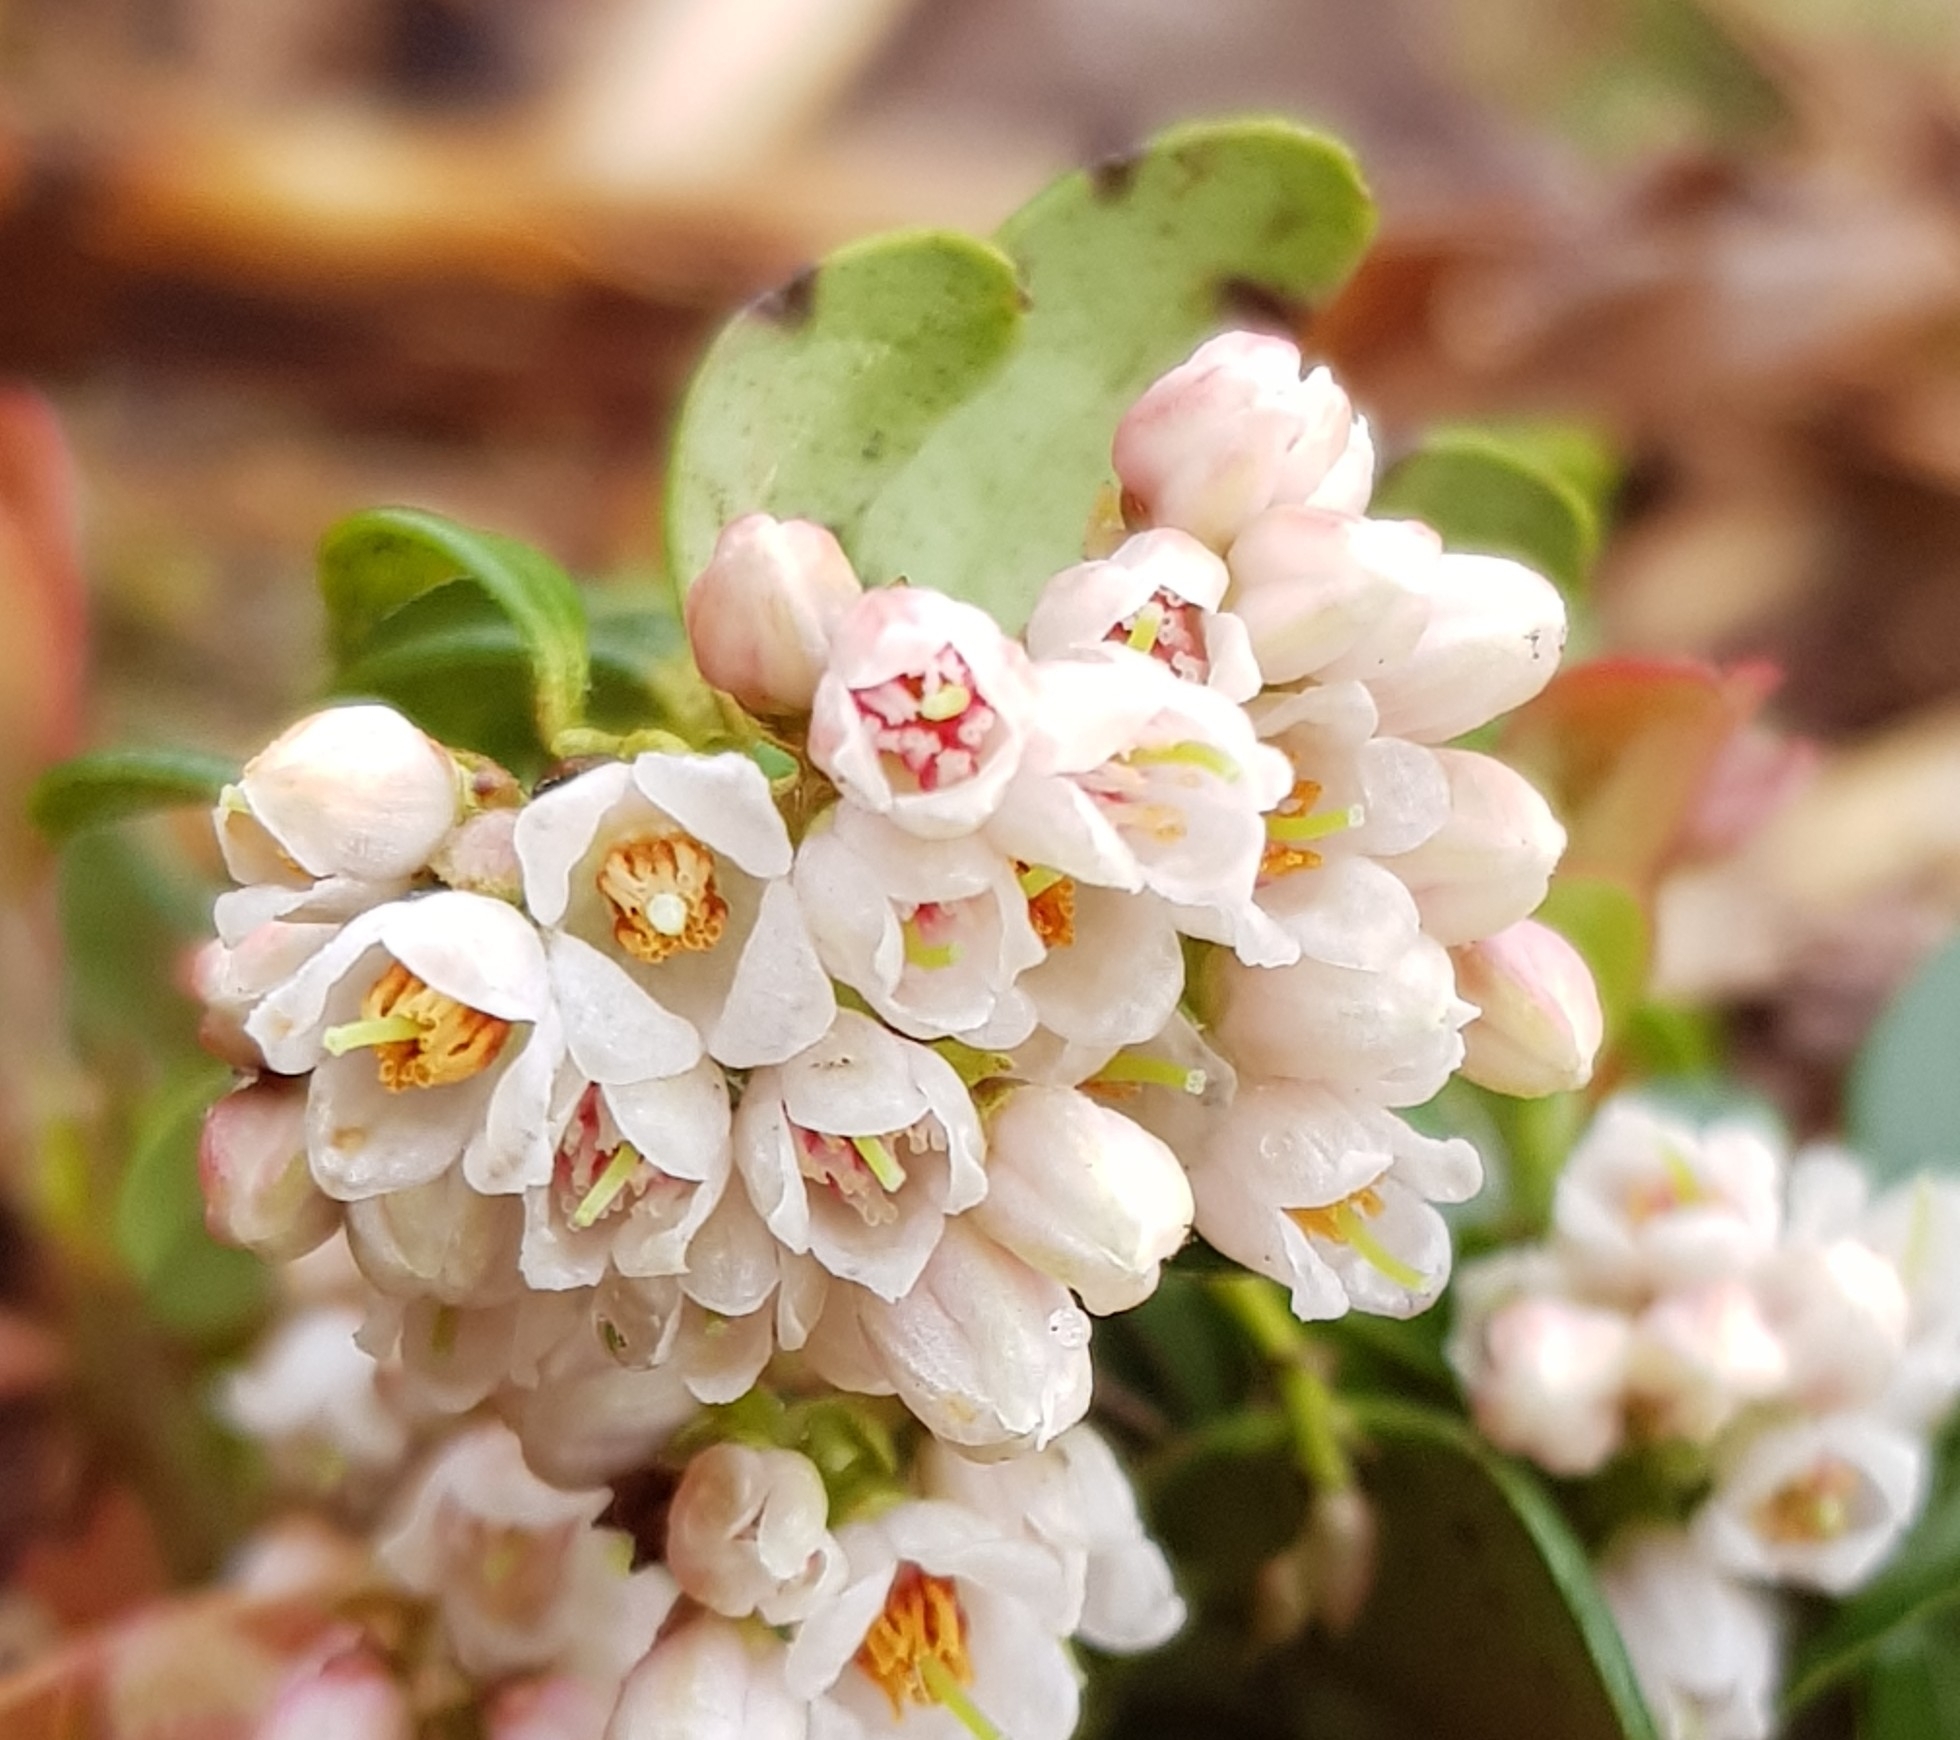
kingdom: Plantae
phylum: Tracheophyta
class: Magnoliopsida
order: Ericales
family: Ericaceae
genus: Vaccinium
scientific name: Vaccinium vitis-idaea
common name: Cowberry
